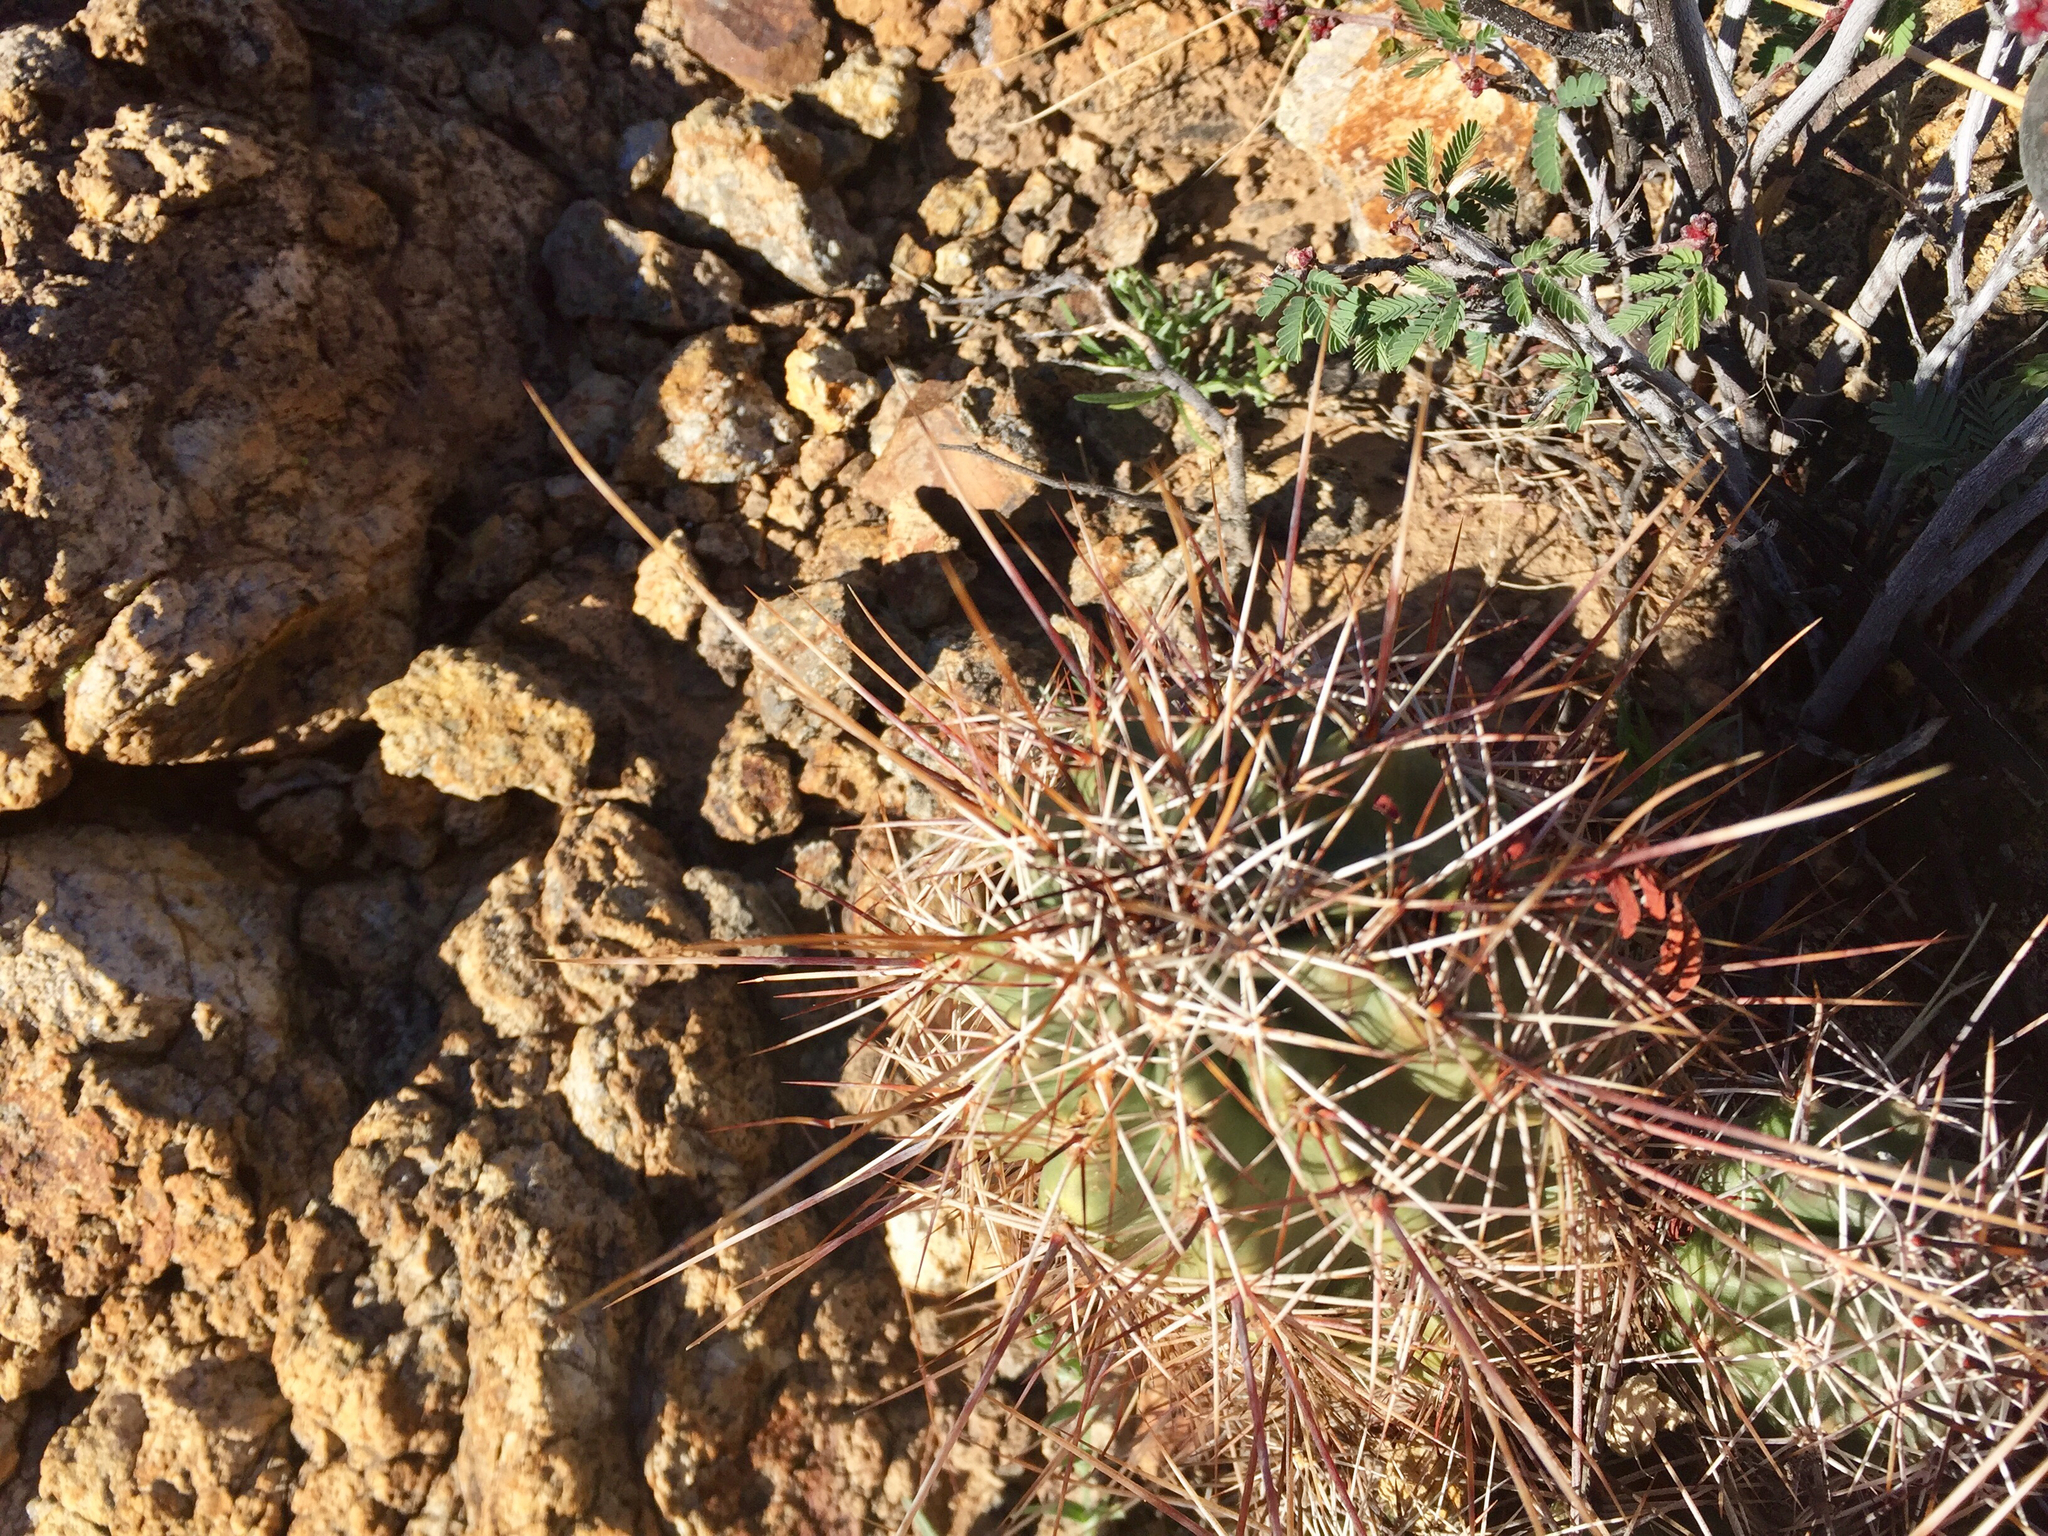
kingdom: Plantae
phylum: Tracheophyta
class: Magnoliopsida
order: Caryophyllales
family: Cactaceae
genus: Echinocereus
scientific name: Echinocereus fasciculatus
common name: Bundle hedgehog
